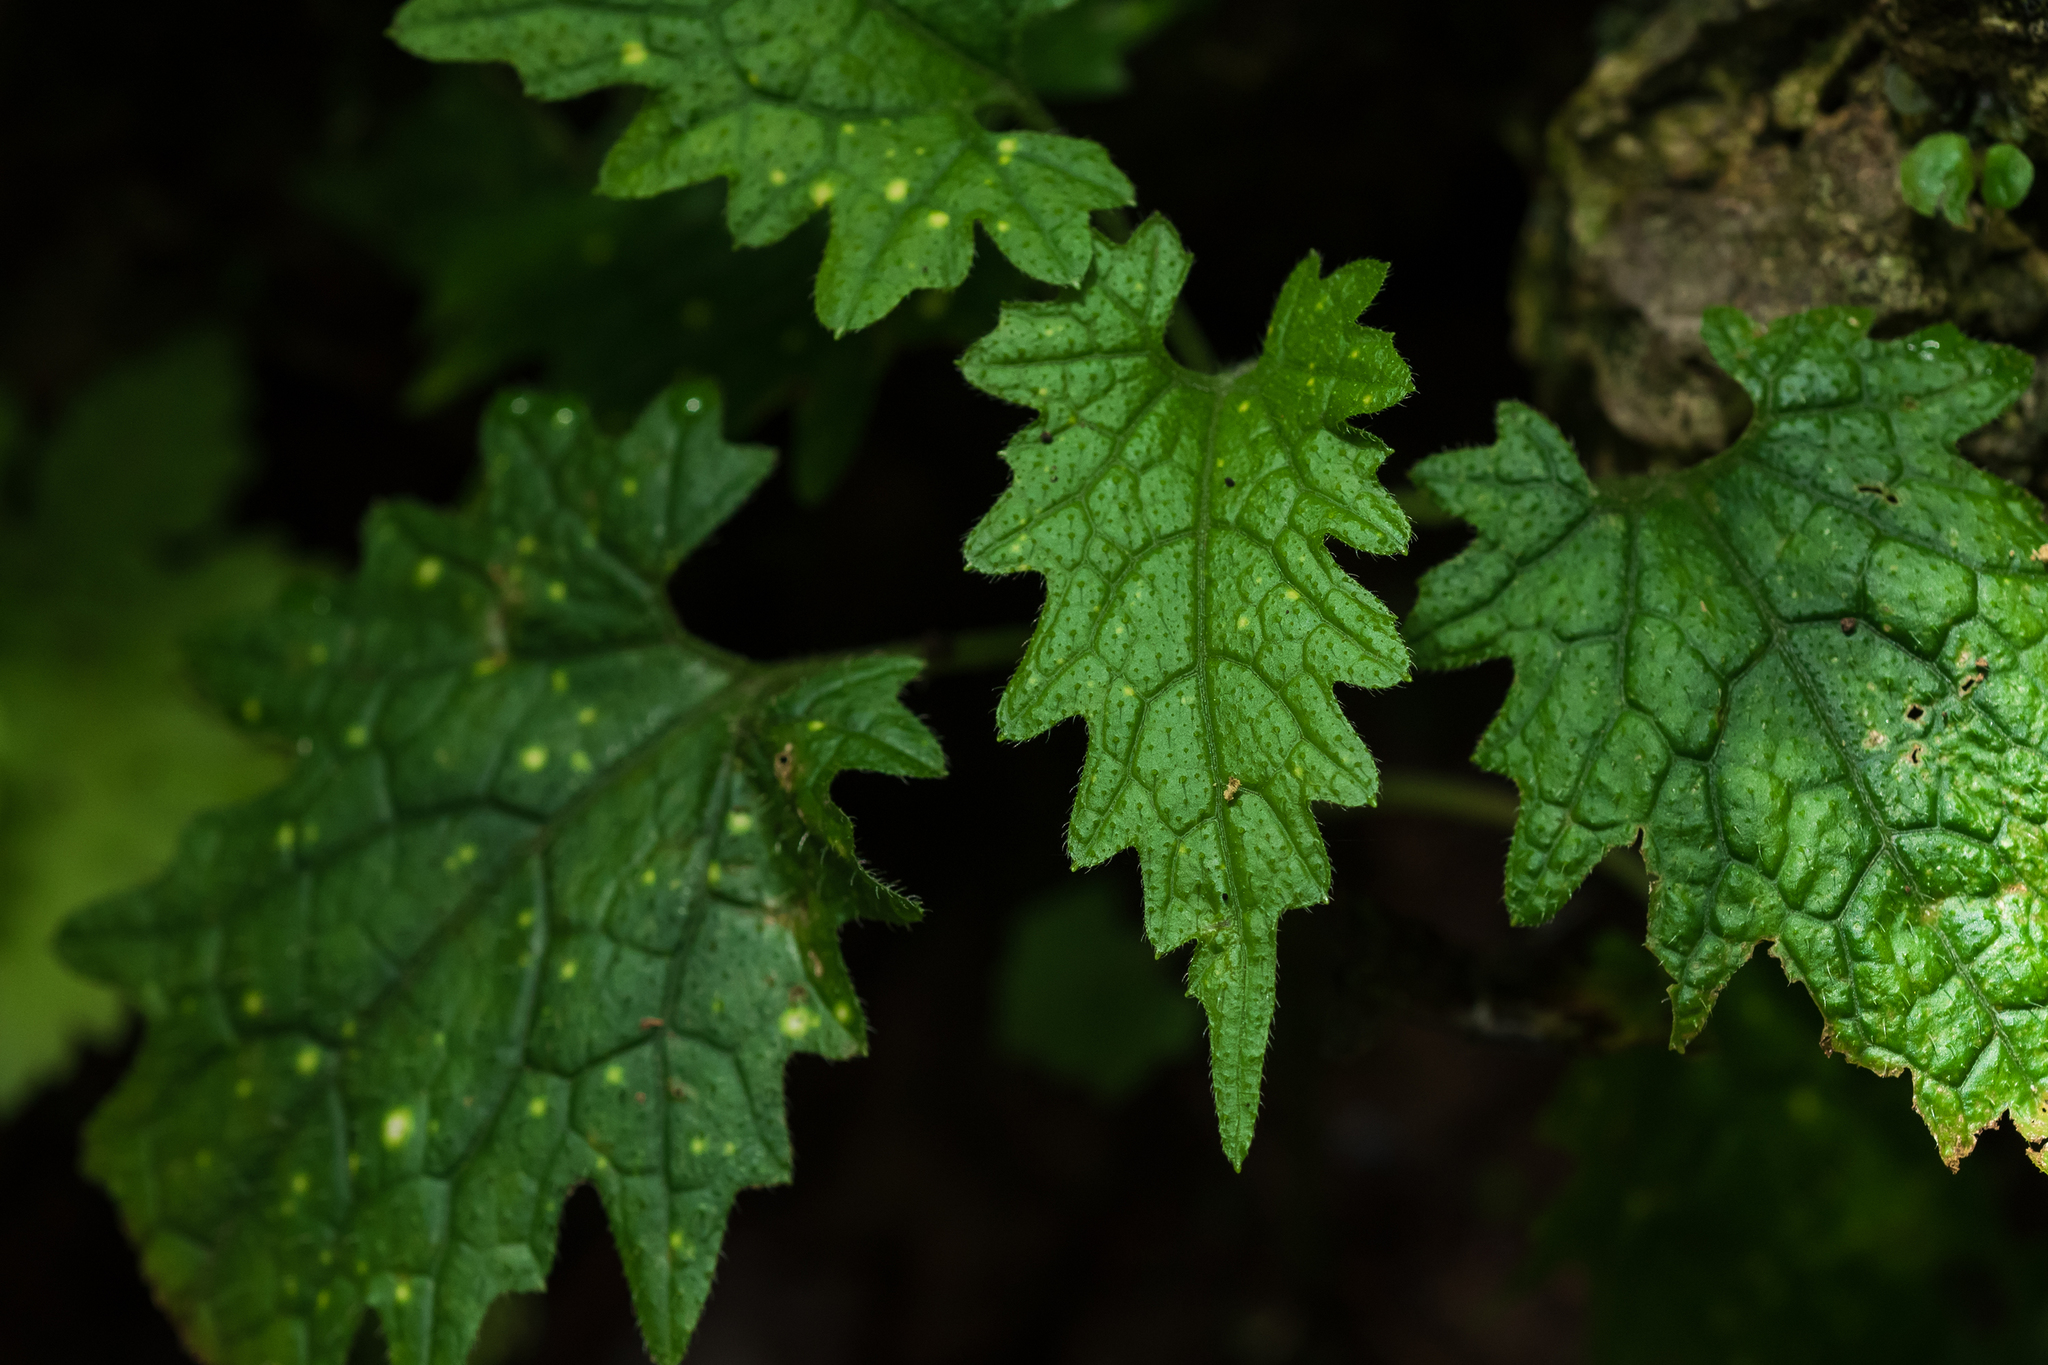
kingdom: Plantae
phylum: Tracheophyta
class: Magnoliopsida
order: Cucurbitales
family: Cucurbitaceae
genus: Sinobaijiania
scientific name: Sinobaijiania taiwaniana
